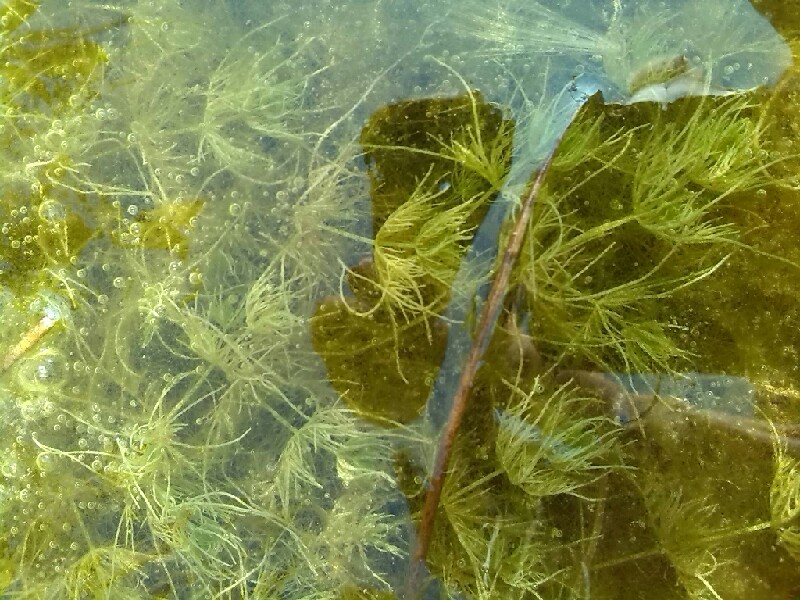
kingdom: Plantae
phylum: Charophyta
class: Charophyceae
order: Charales
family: Characeae
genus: Chara
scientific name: Chara vulgaris
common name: Common stonewort
